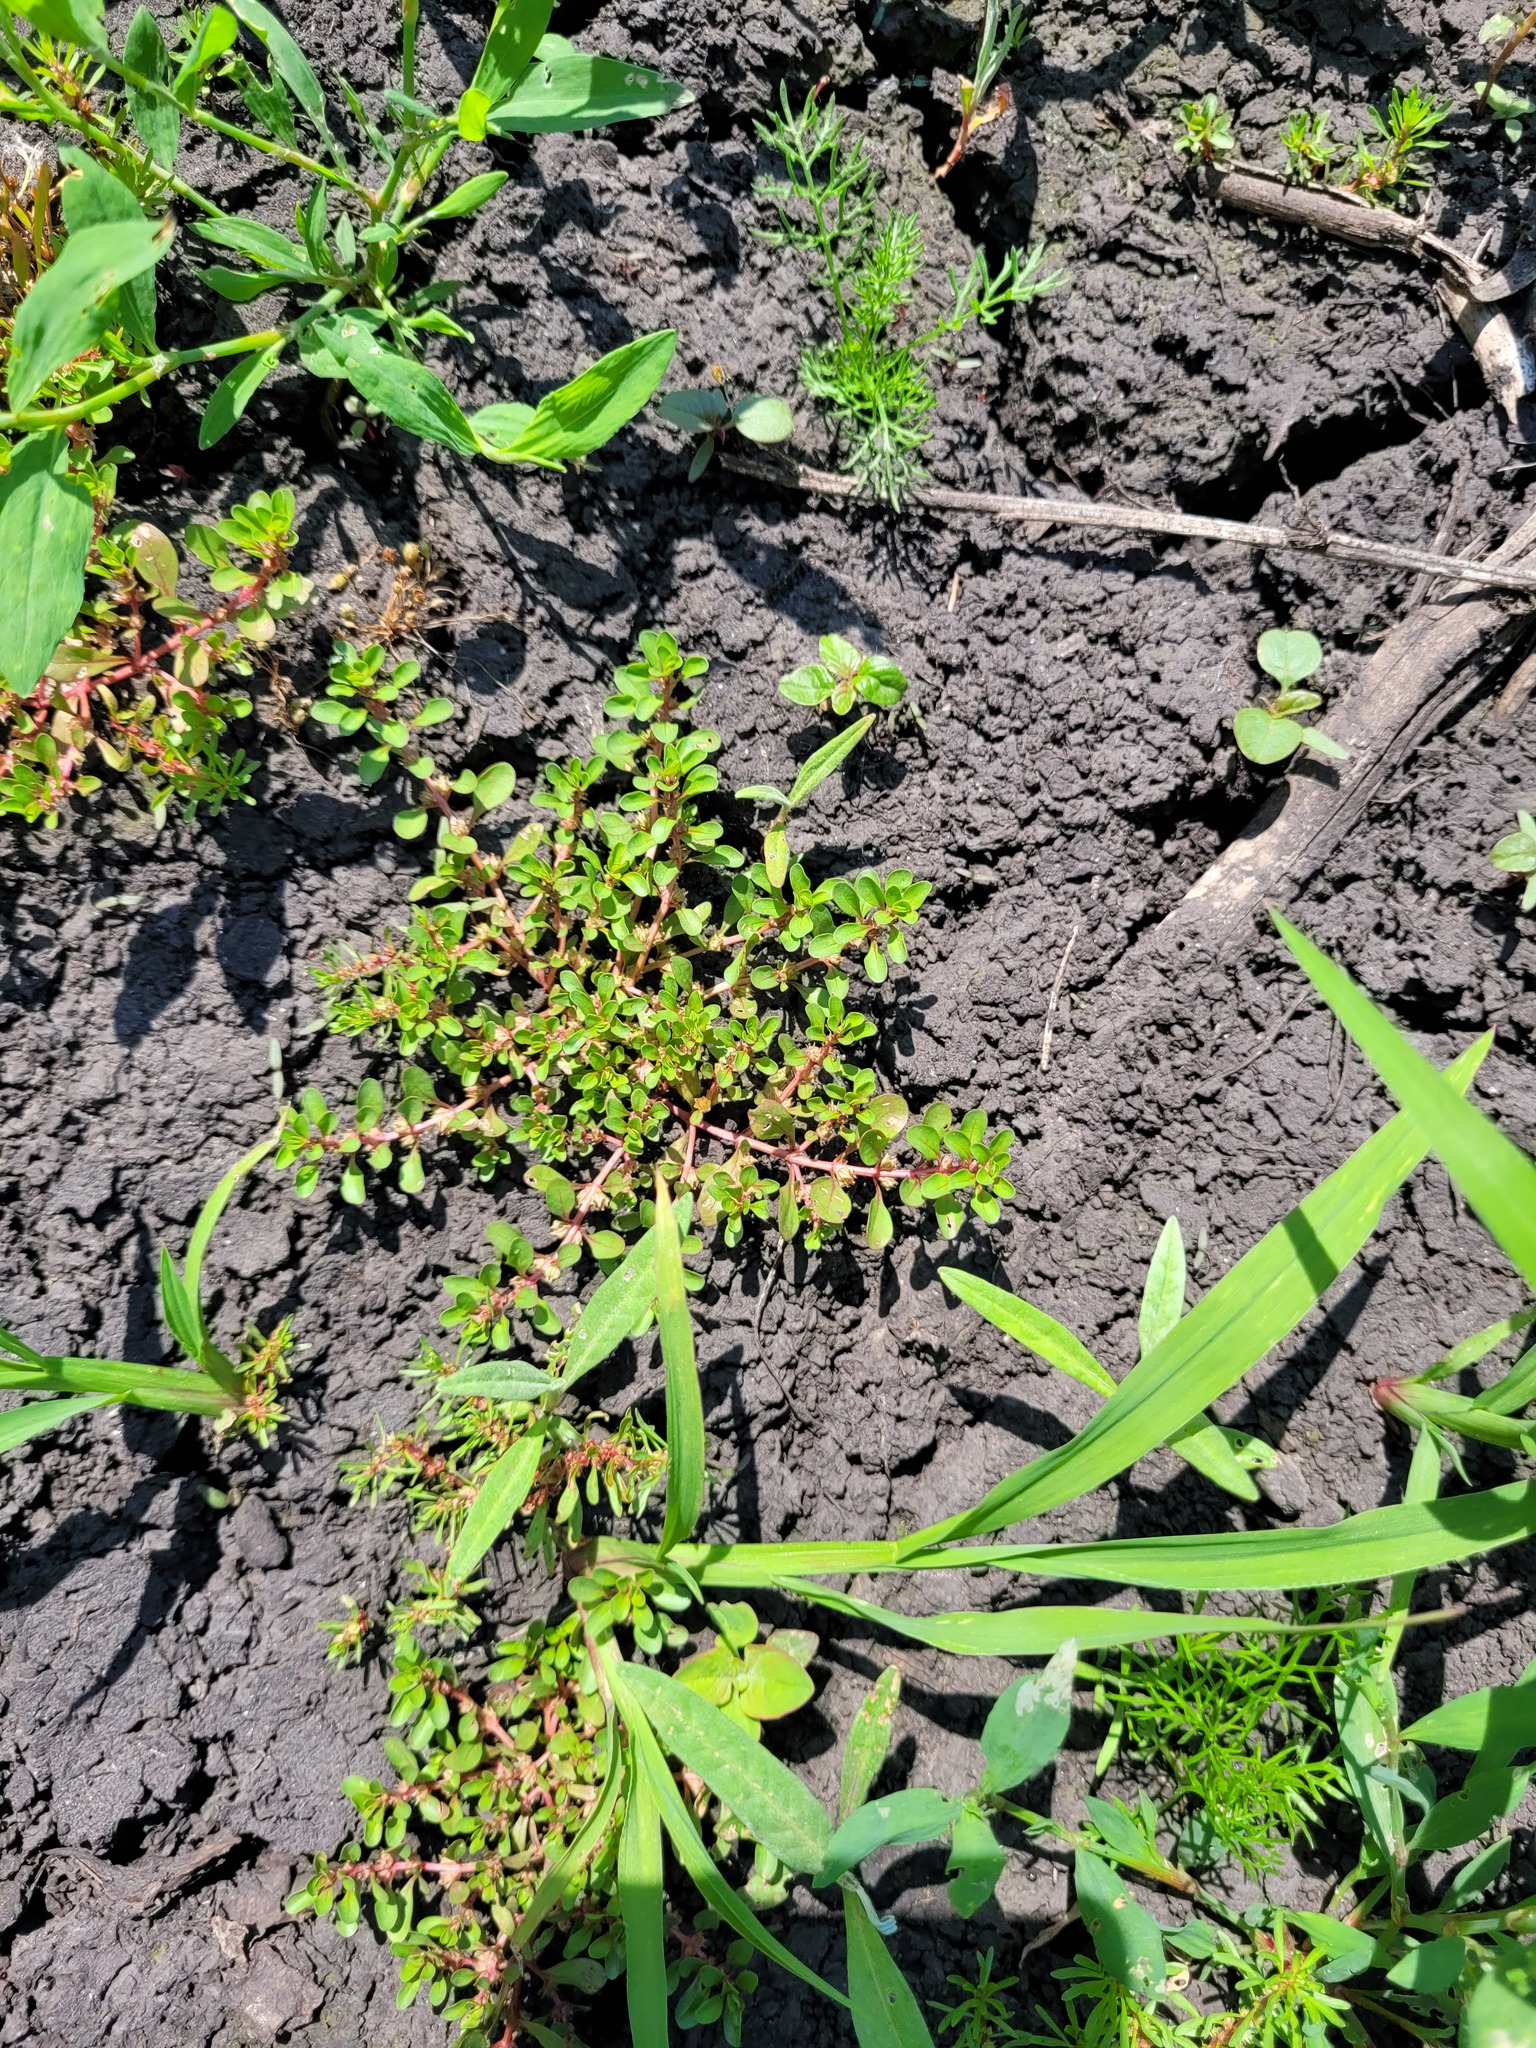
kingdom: Plantae
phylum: Tracheophyta
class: Magnoliopsida
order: Myrtales
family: Lythraceae
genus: Lythrum
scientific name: Lythrum portula
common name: Water purslane
